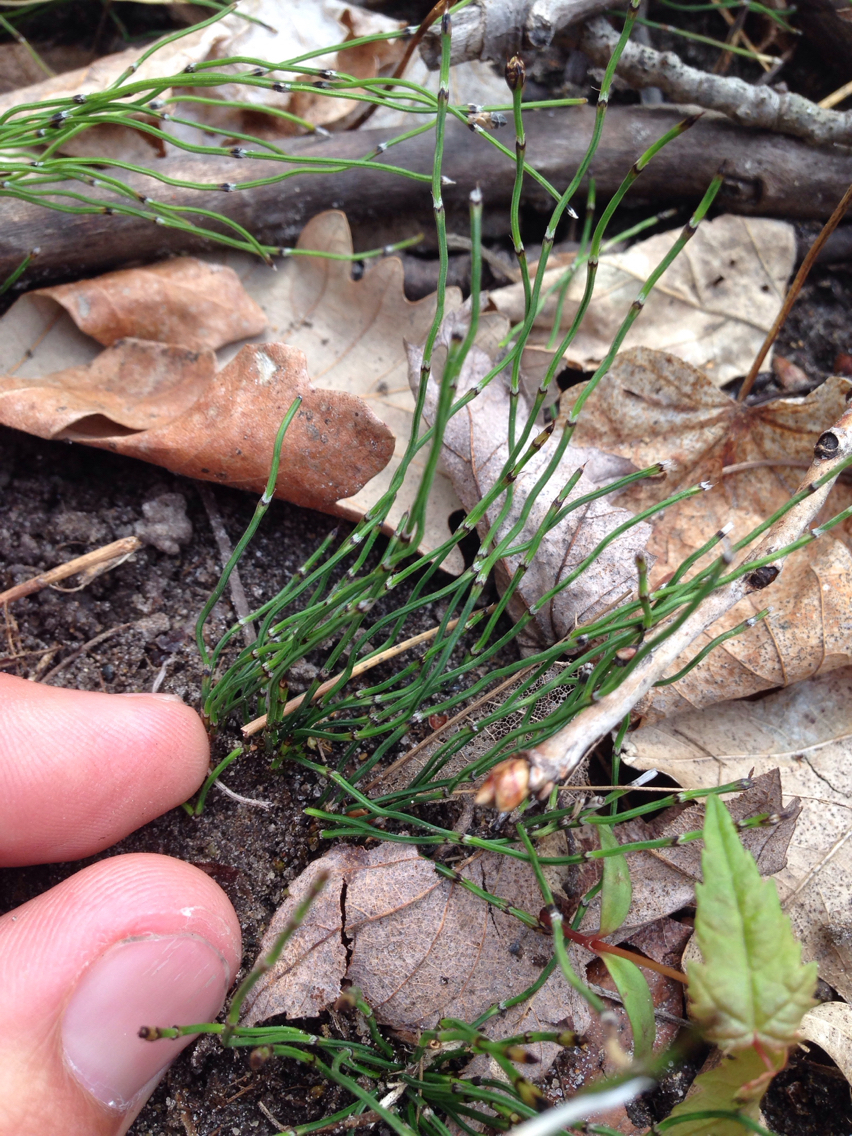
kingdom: Plantae
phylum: Tracheophyta
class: Polypodiopsida
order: Equisetales
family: Equisetaceae
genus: Equisetum
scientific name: Equisetum scirpoides
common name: Delicate horsetail
